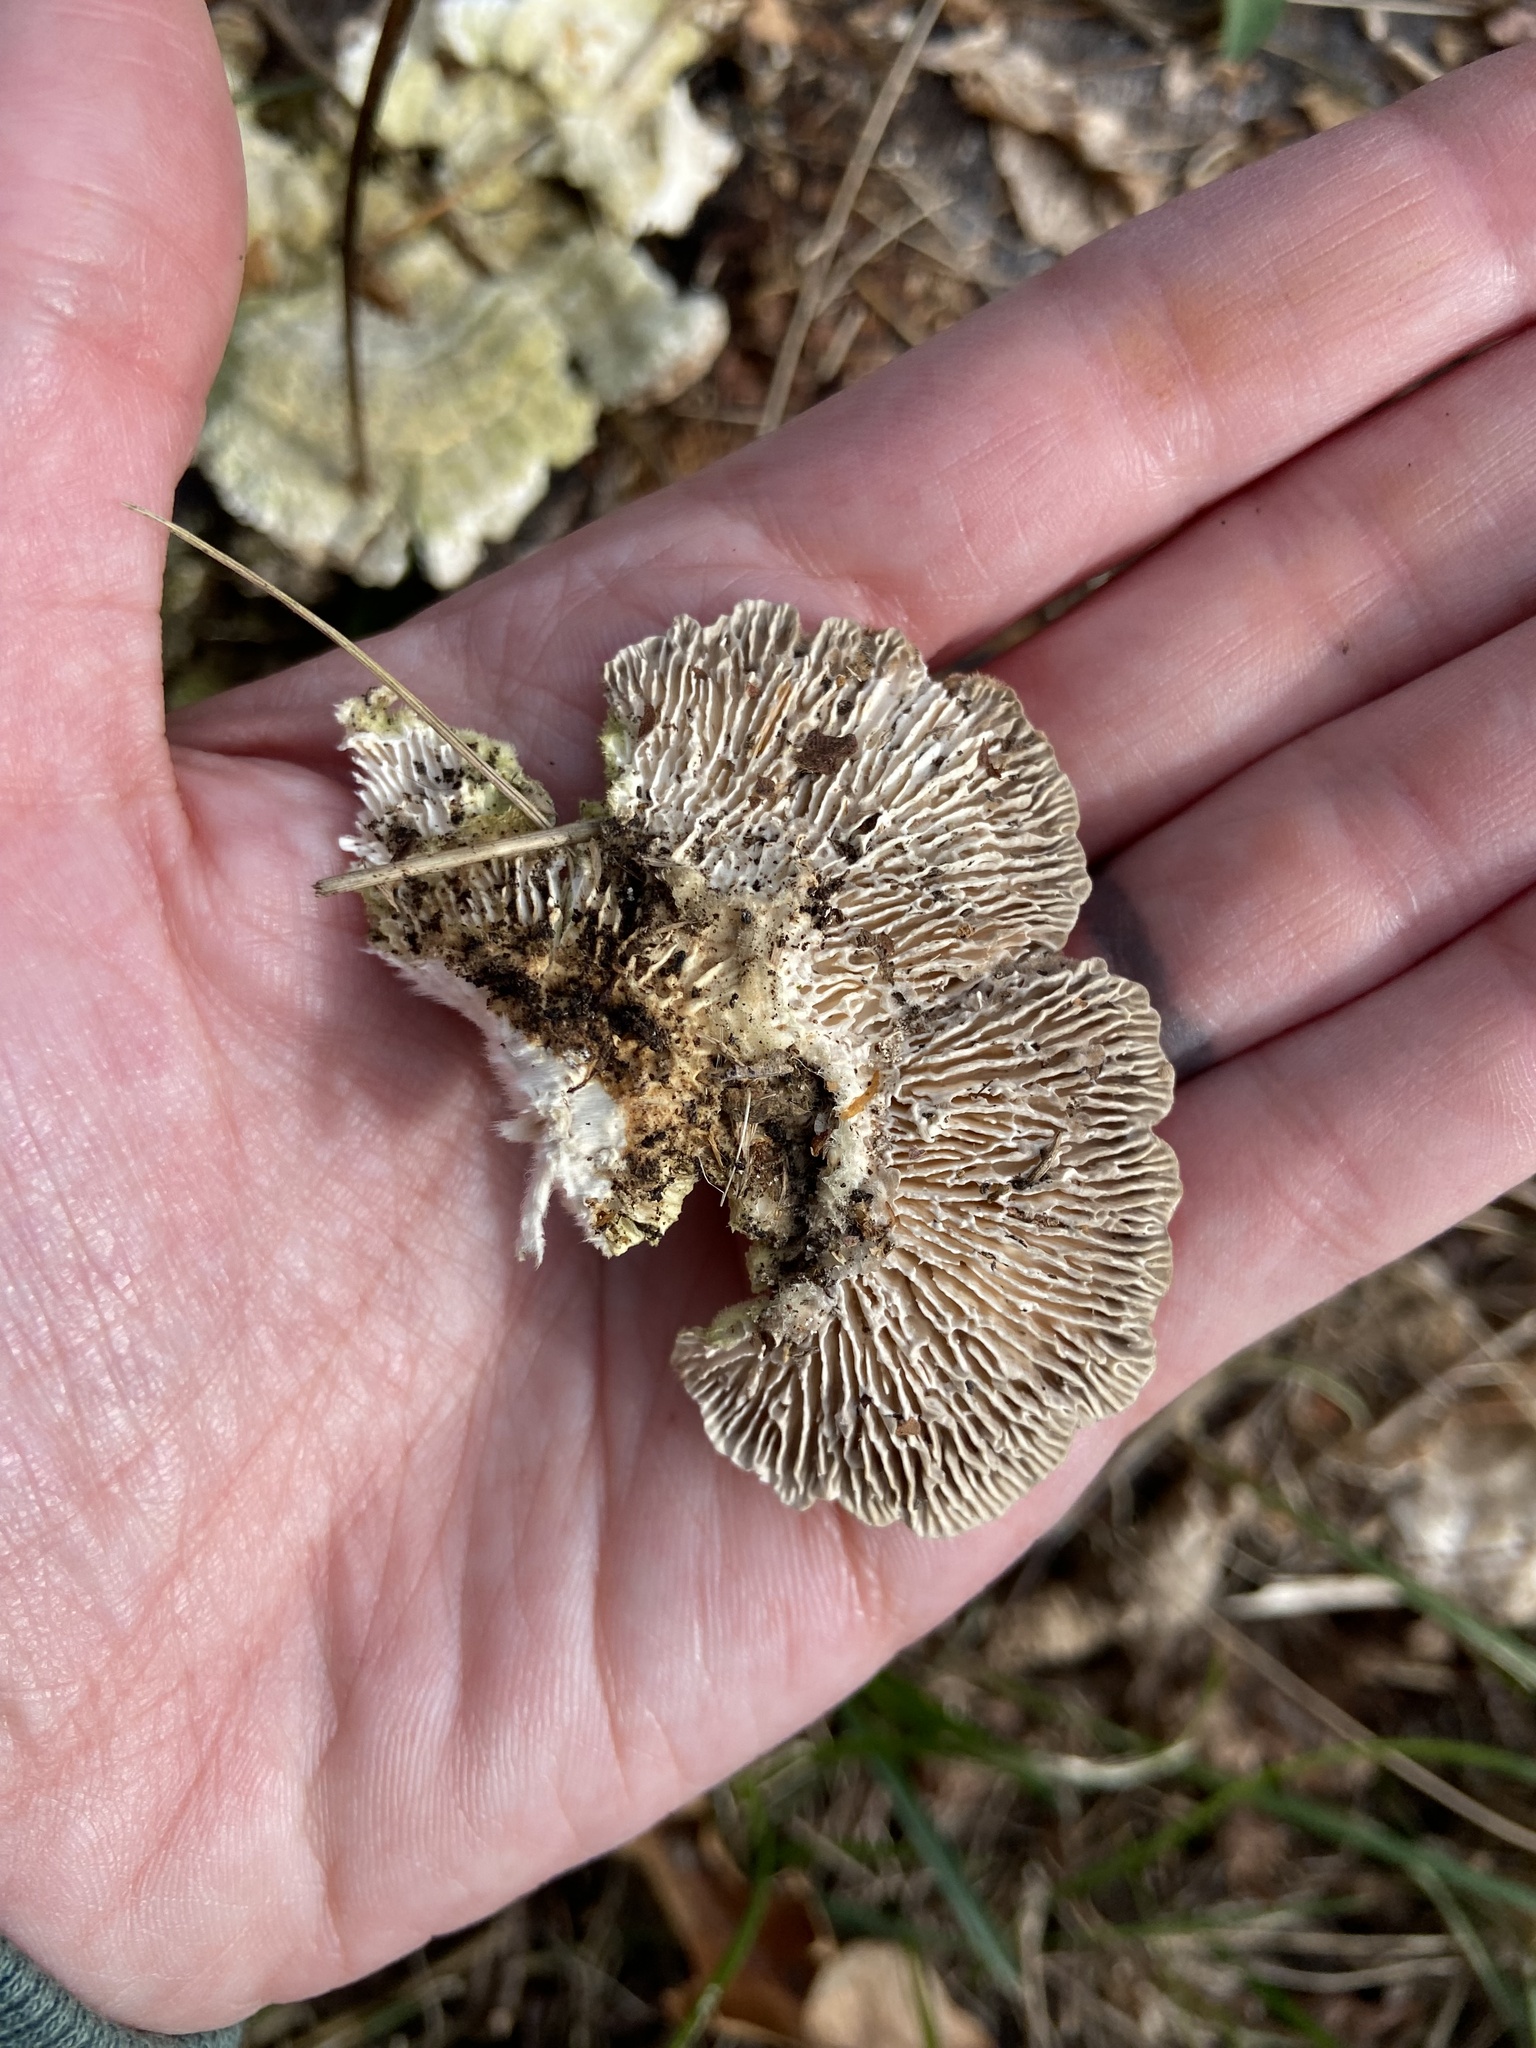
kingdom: Fungi
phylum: Basidiomycota
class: Agaricomycetes
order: Polyporales
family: Polyporaceae
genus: Lenzites
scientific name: Lenzites betulinus
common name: Birch mazegill
